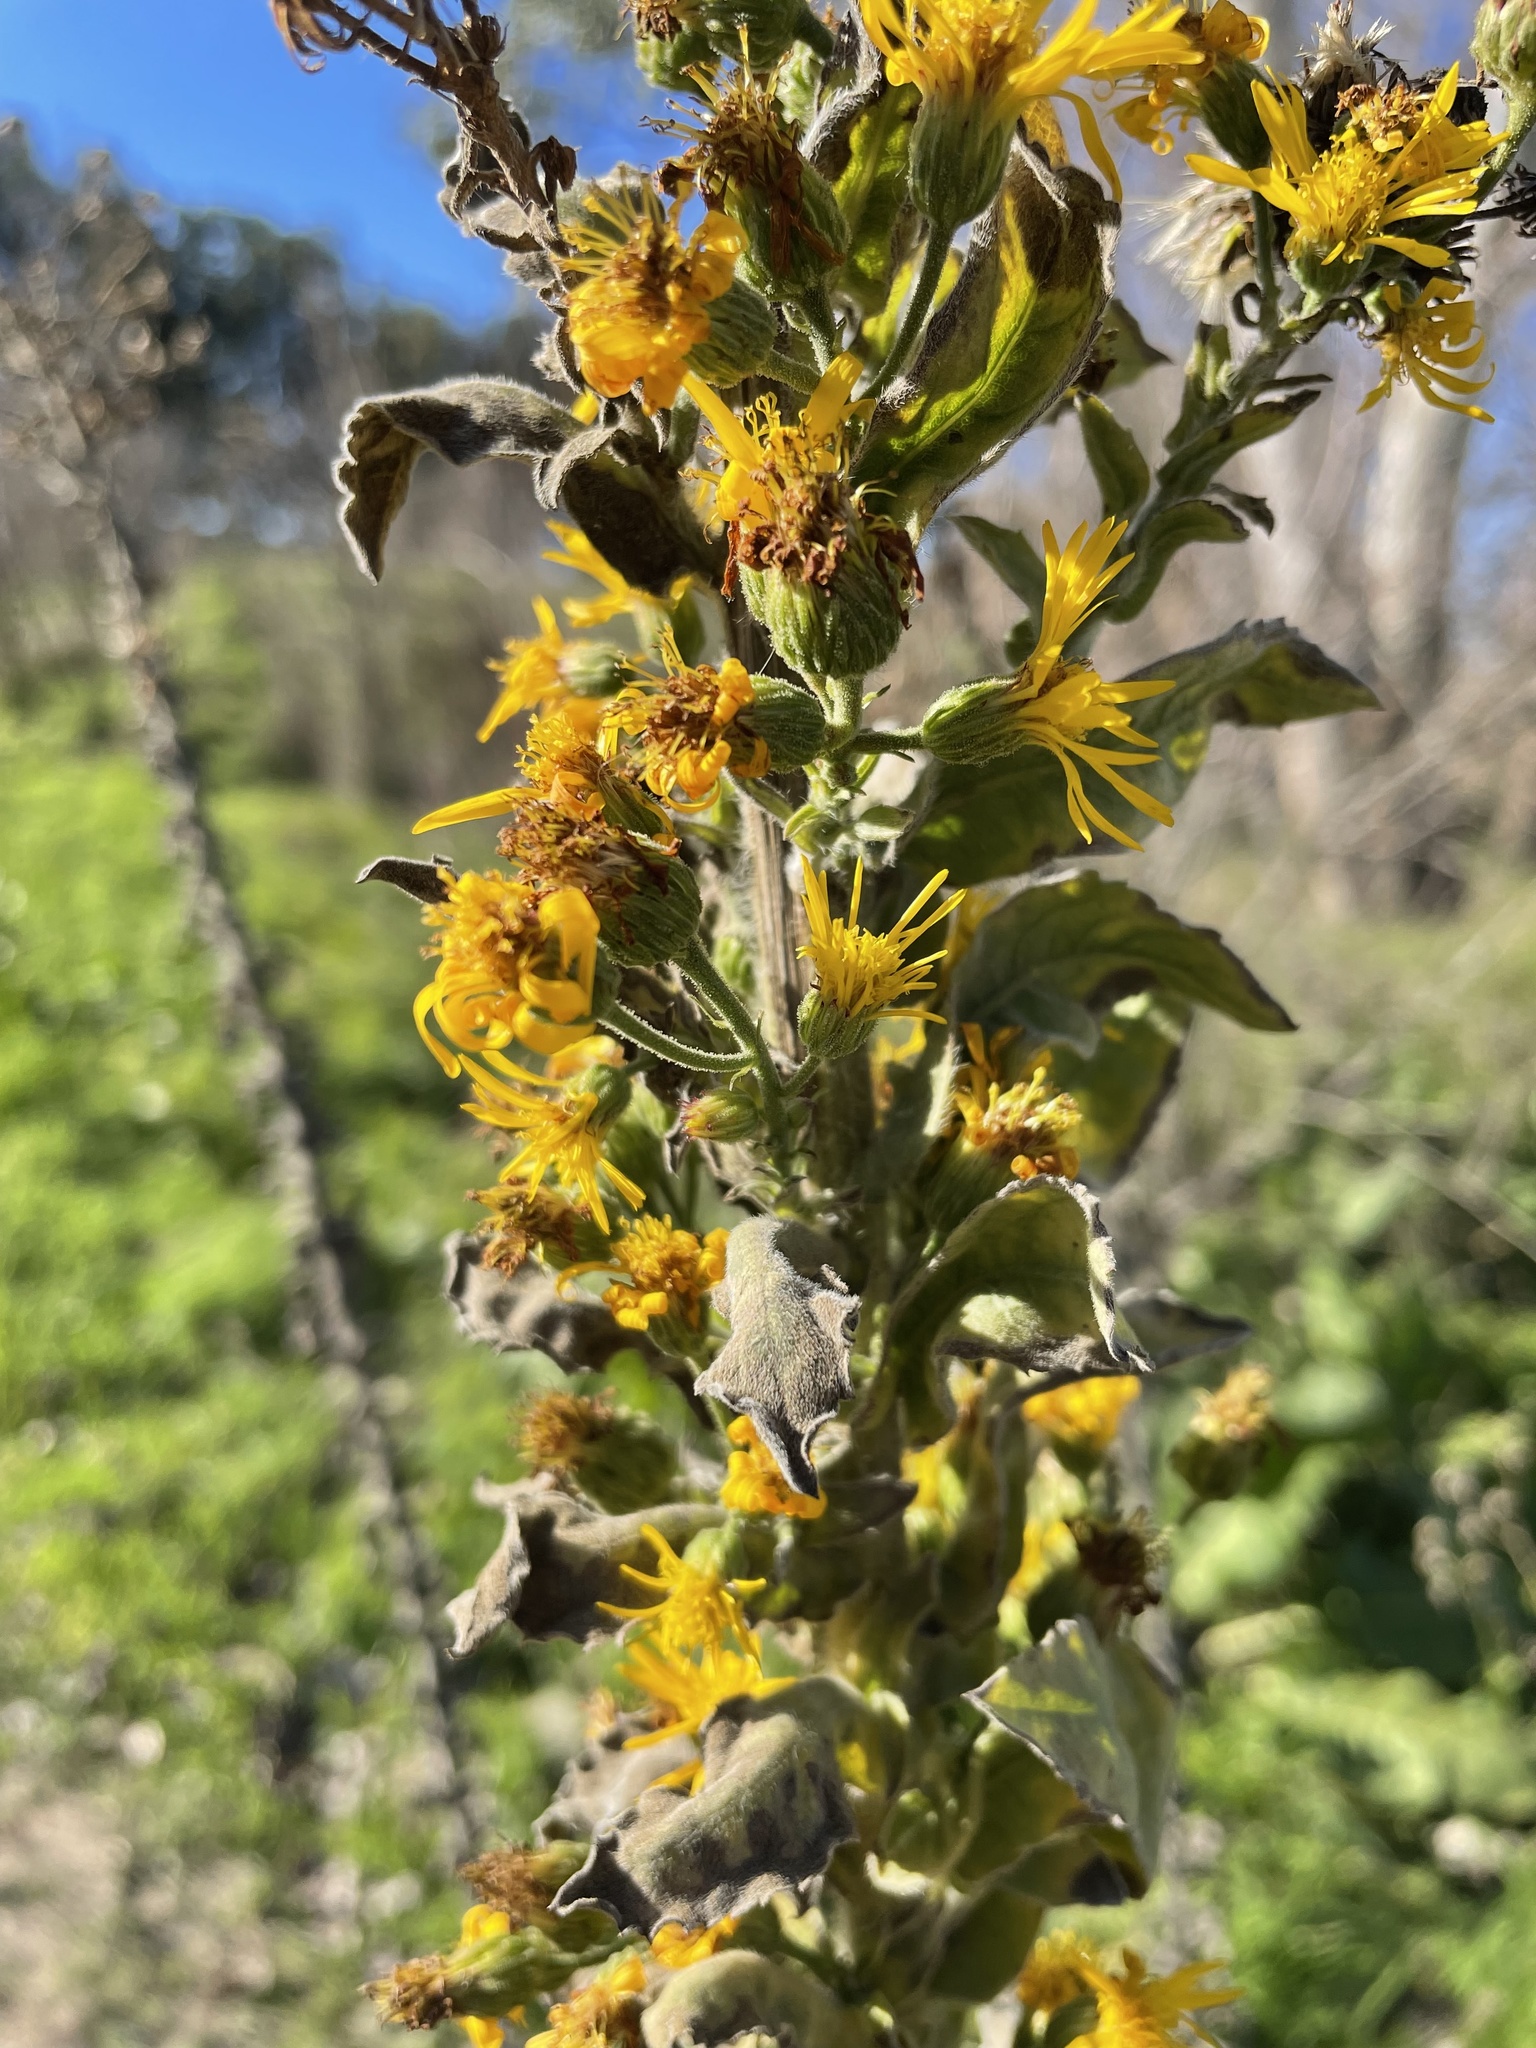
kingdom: Plantae
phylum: Tracheophyta
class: Magnoliopsida
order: Asterales
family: Asteraceae
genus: Heterotheca
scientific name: Heterotheca grandiflora
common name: Telegraphweed
